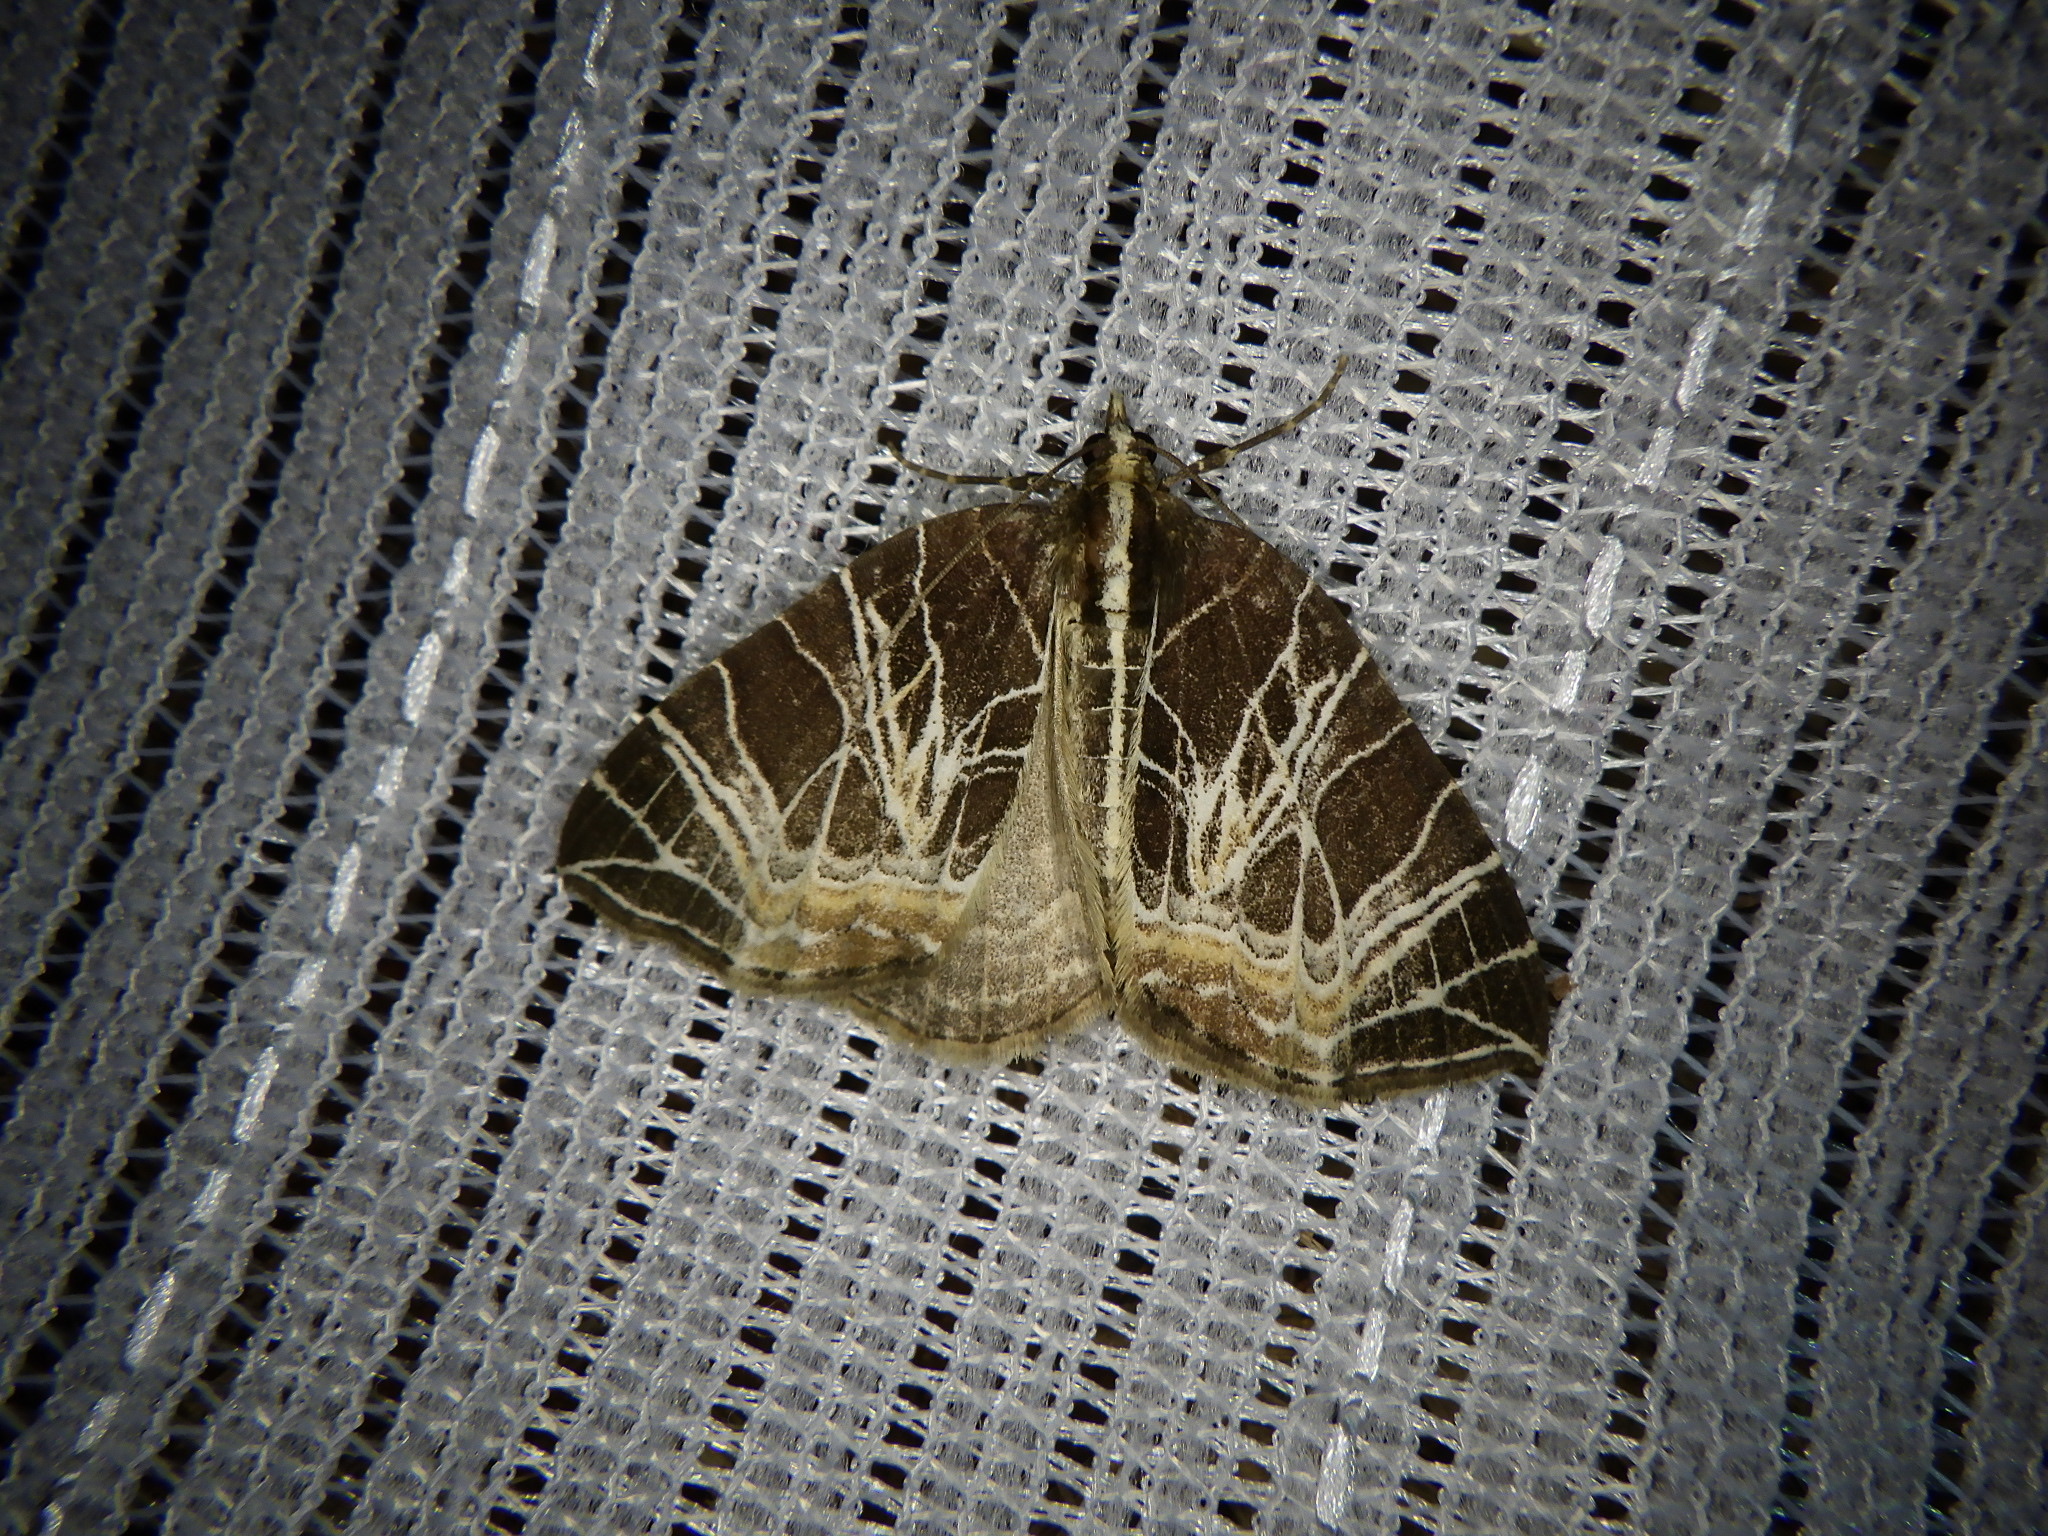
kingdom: Animalia
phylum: Arthropoda
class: Insecta
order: Lepidoptera
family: Geometridae
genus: Evecliptopera
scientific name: Evecliptopera illitata
